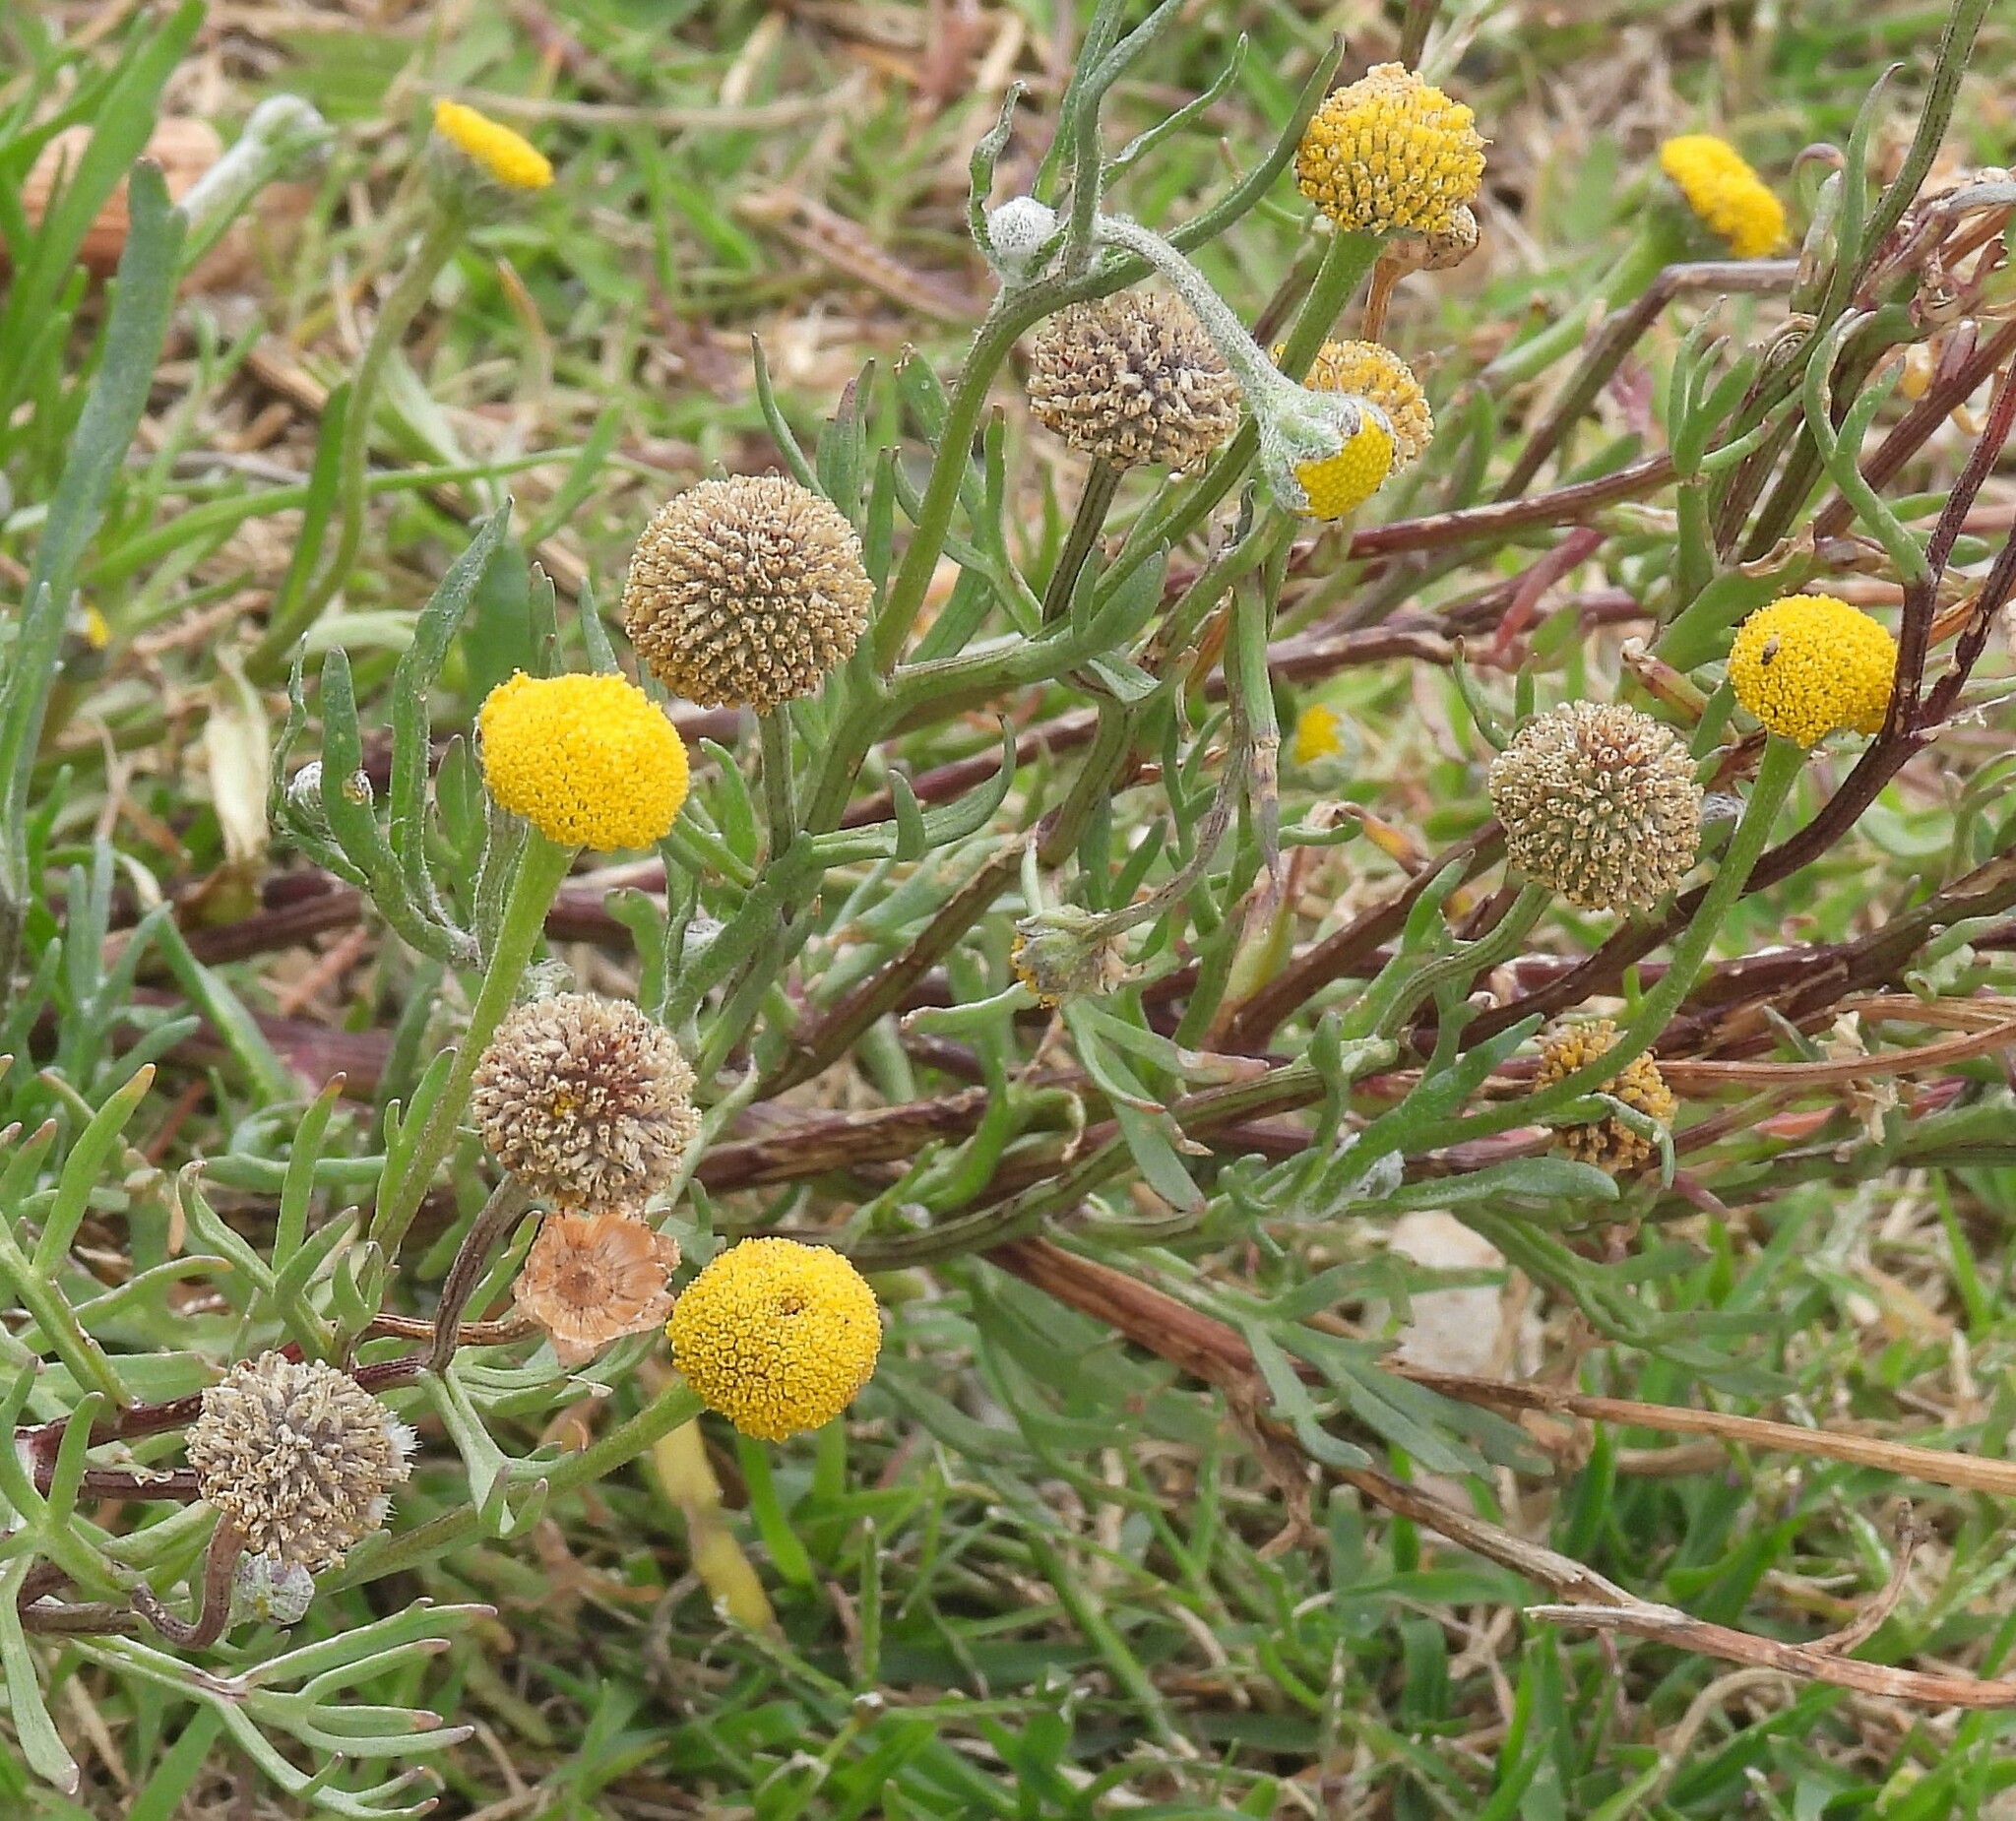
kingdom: Plantae
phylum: Tracheophyta
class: Magnoliopsida
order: Asterales
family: Asteraceae
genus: Hymenoxys
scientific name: Hymenoxys robusta
